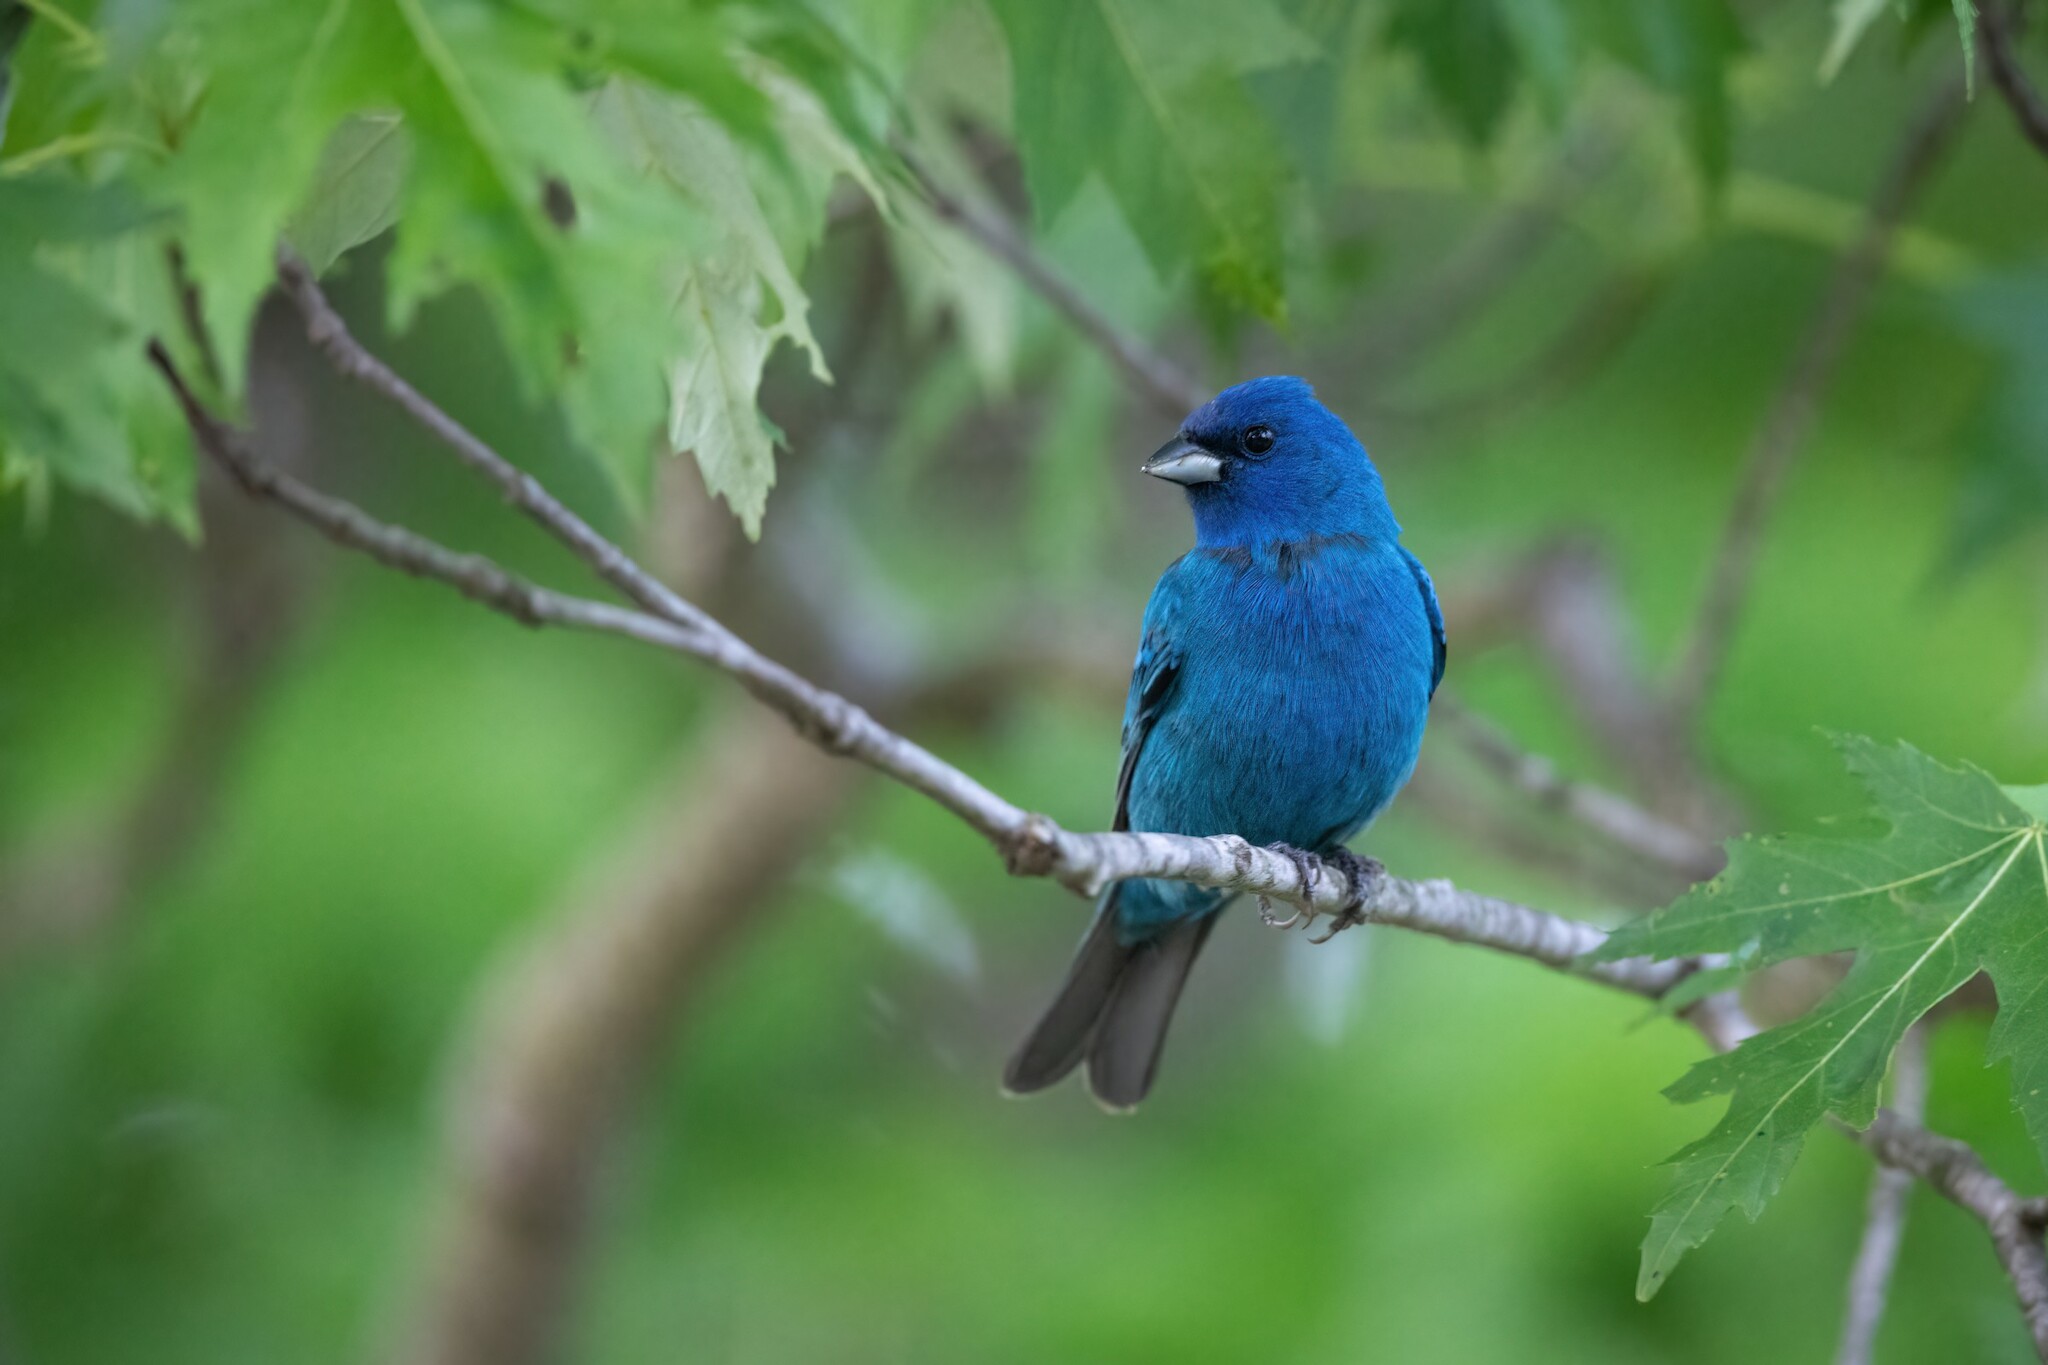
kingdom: Animalia
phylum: Chordata
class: Aves
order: Passeriformes
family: Cardinalidae
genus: Passerina
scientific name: Passerina cyanea
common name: Indigo bunting
